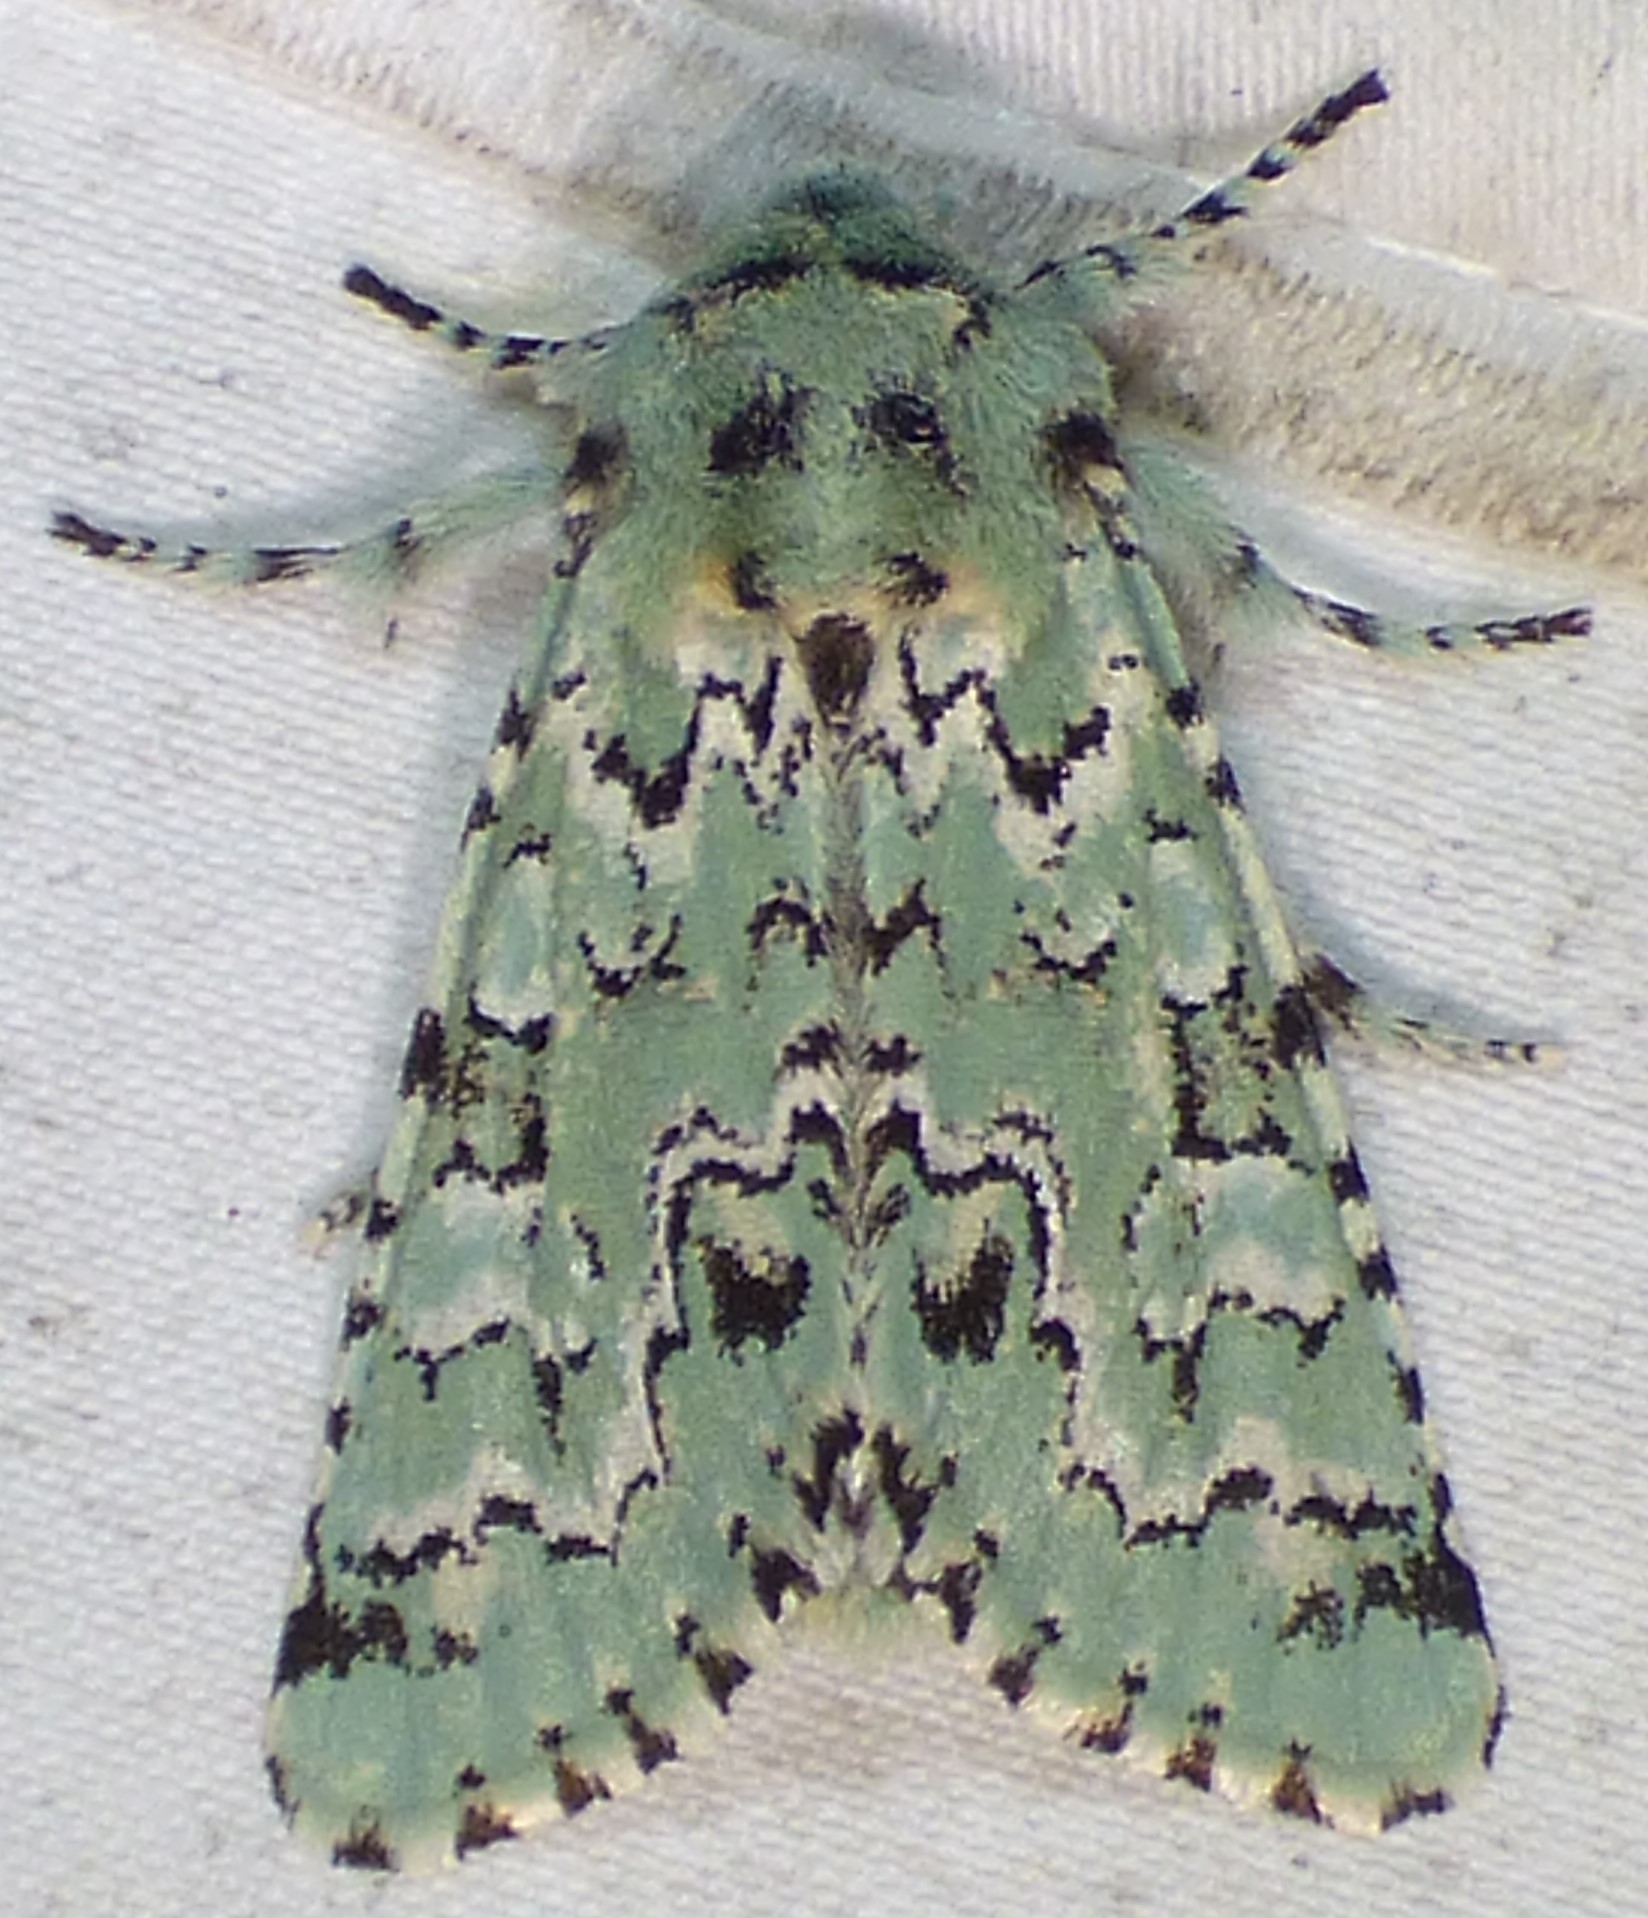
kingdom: Animalia
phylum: Arthropoda
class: Insecta
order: Lepidoptera
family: Noctuidae
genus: Feralia
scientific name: Feralia major
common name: Major sallow
